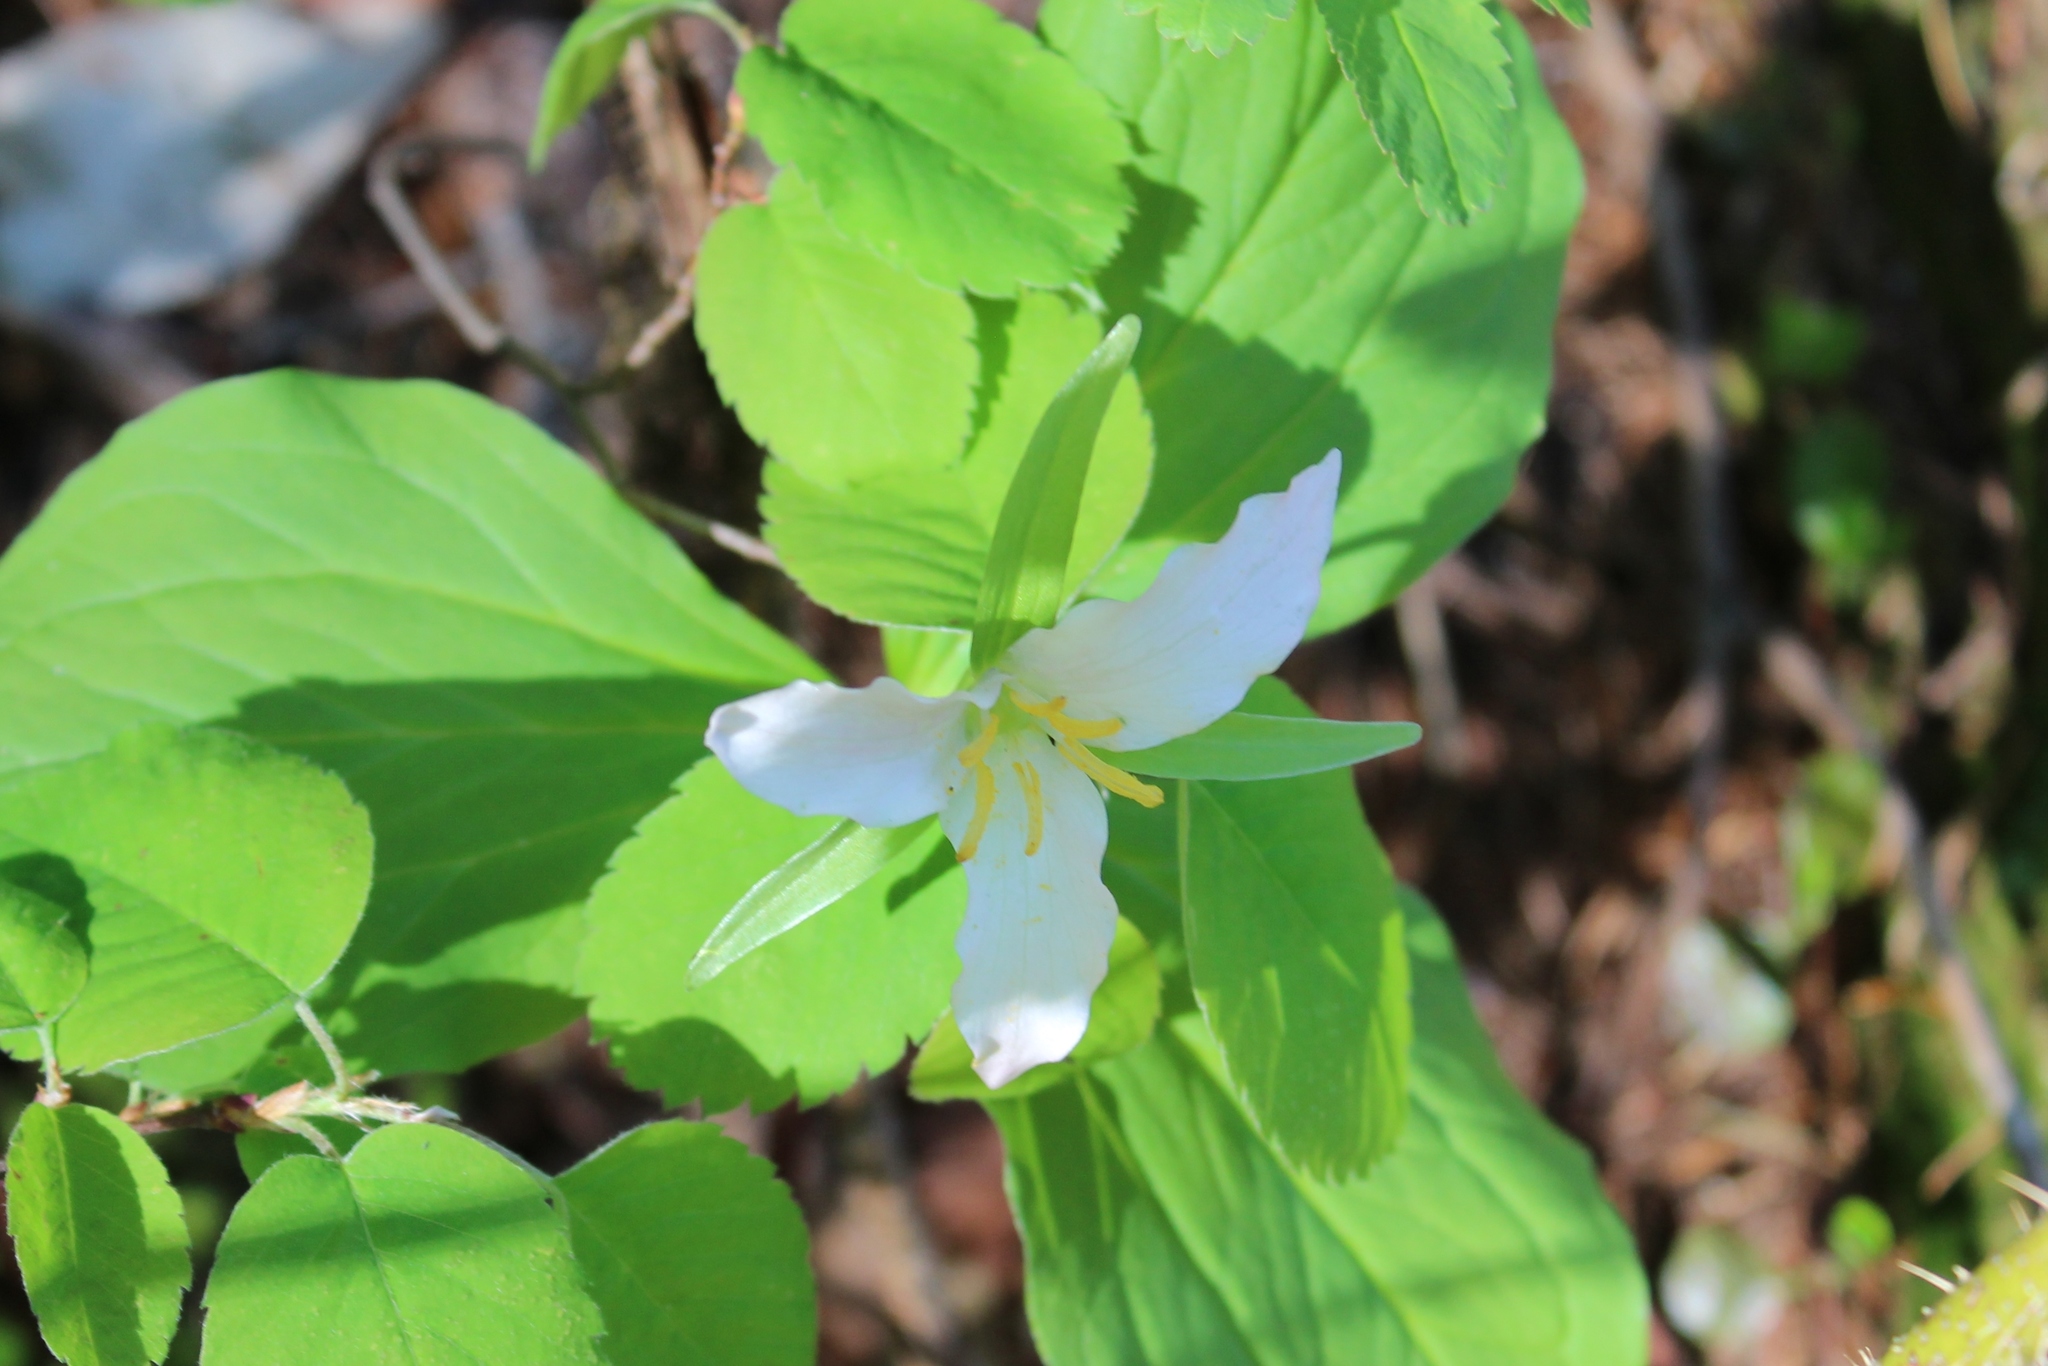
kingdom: Plantae
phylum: Tracheophyta
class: Liliopsida
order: Liliales
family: Melanthiaceae
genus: Trillium
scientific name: Trillium ovatum
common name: Pacific trillium
